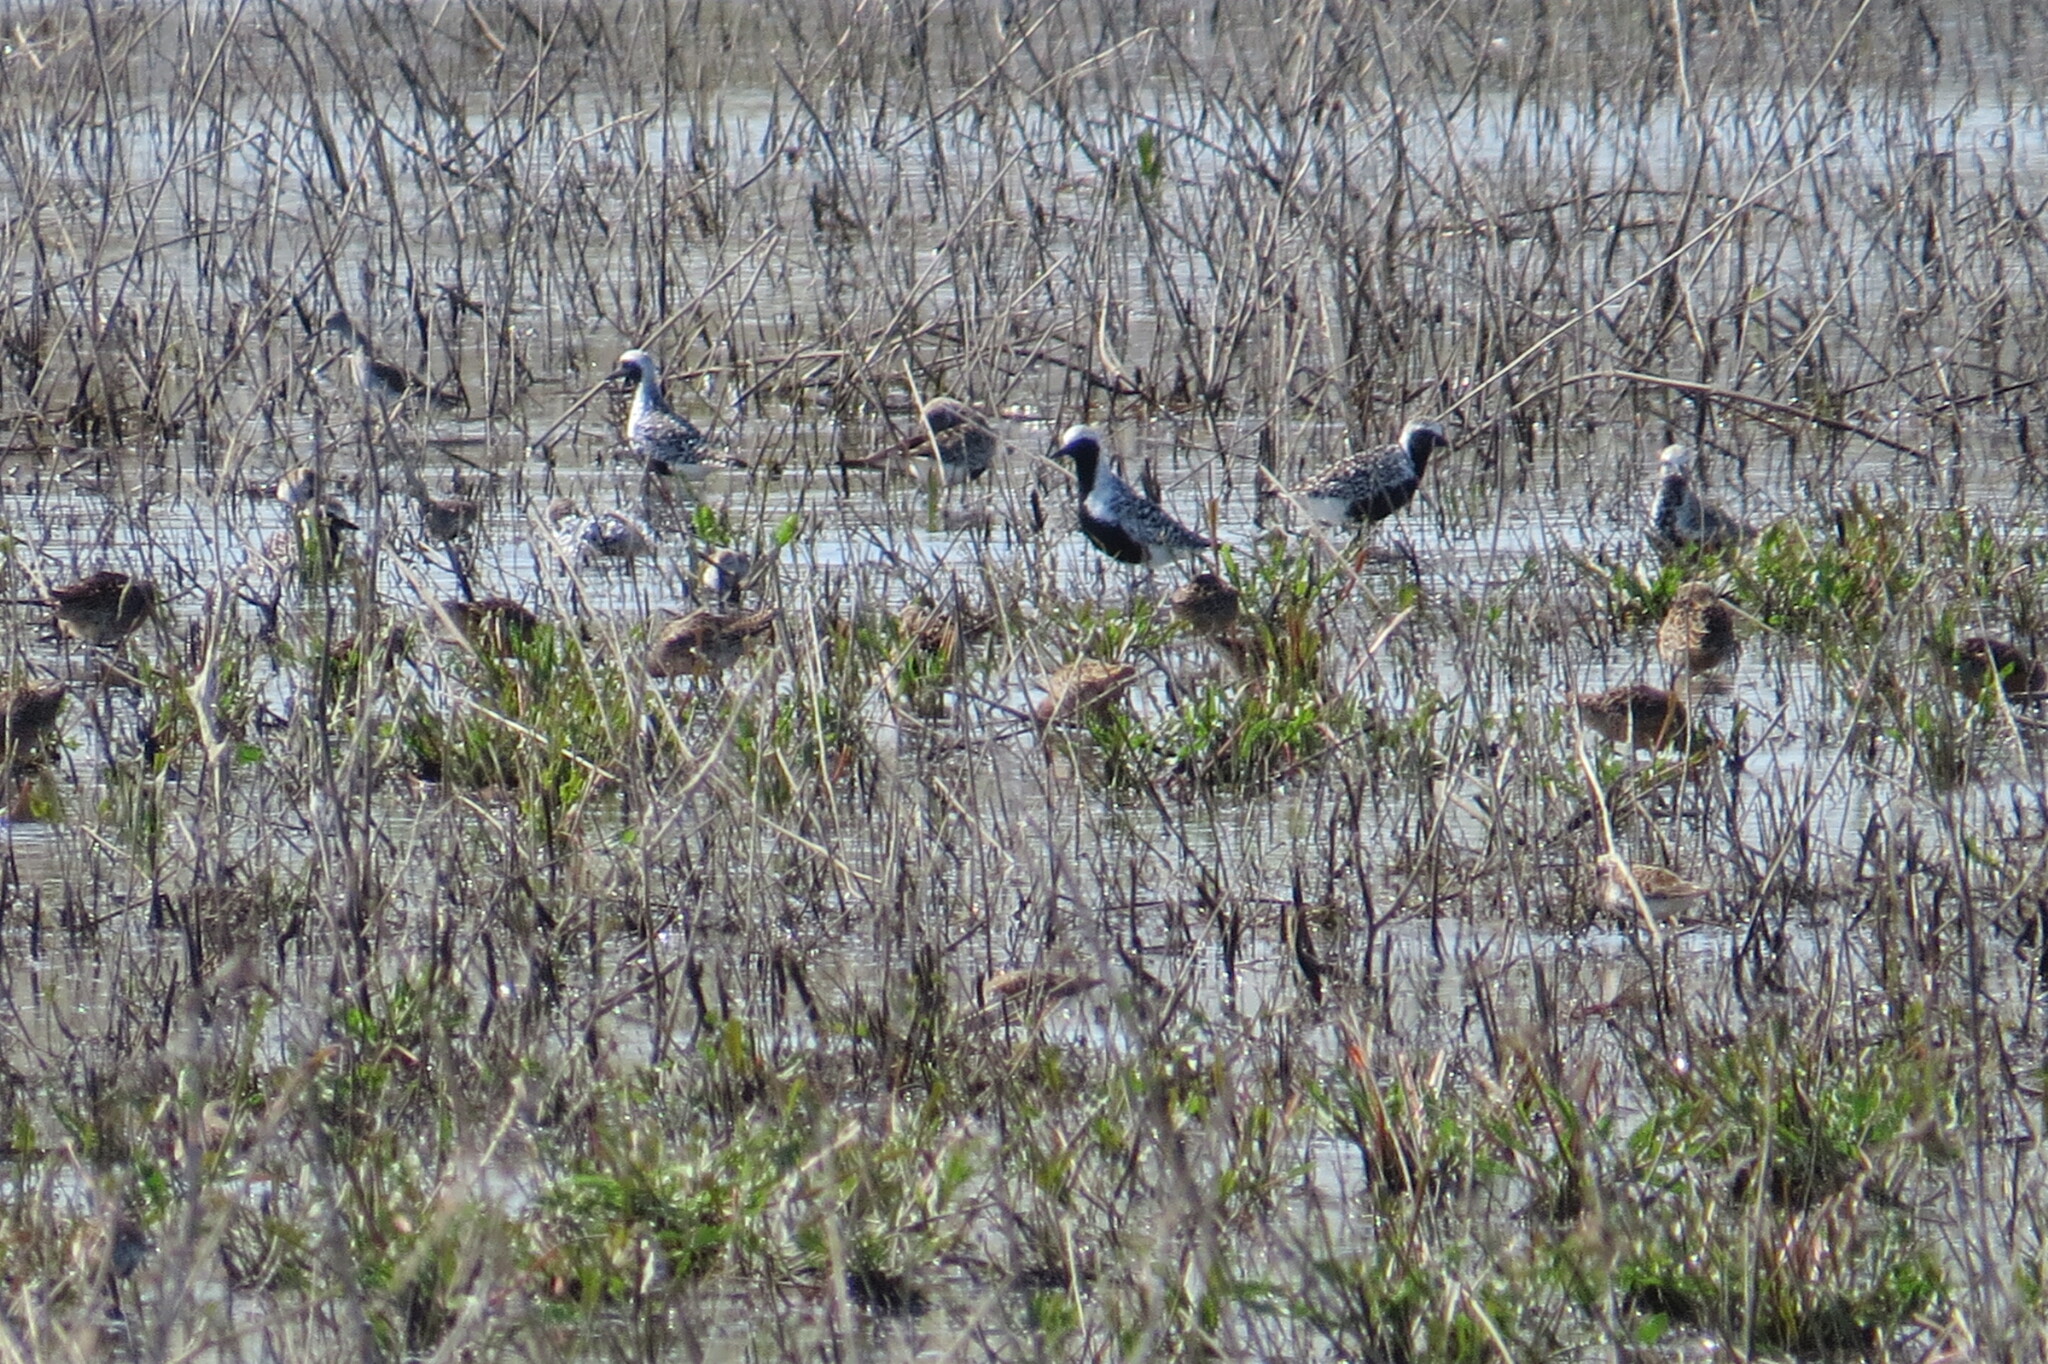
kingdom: Animalia
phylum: Chordata
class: Aves
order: Charadriiformes
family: Charadriidae
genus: Pluvialis
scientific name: Pluvialis squatarola
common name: Grey plover
